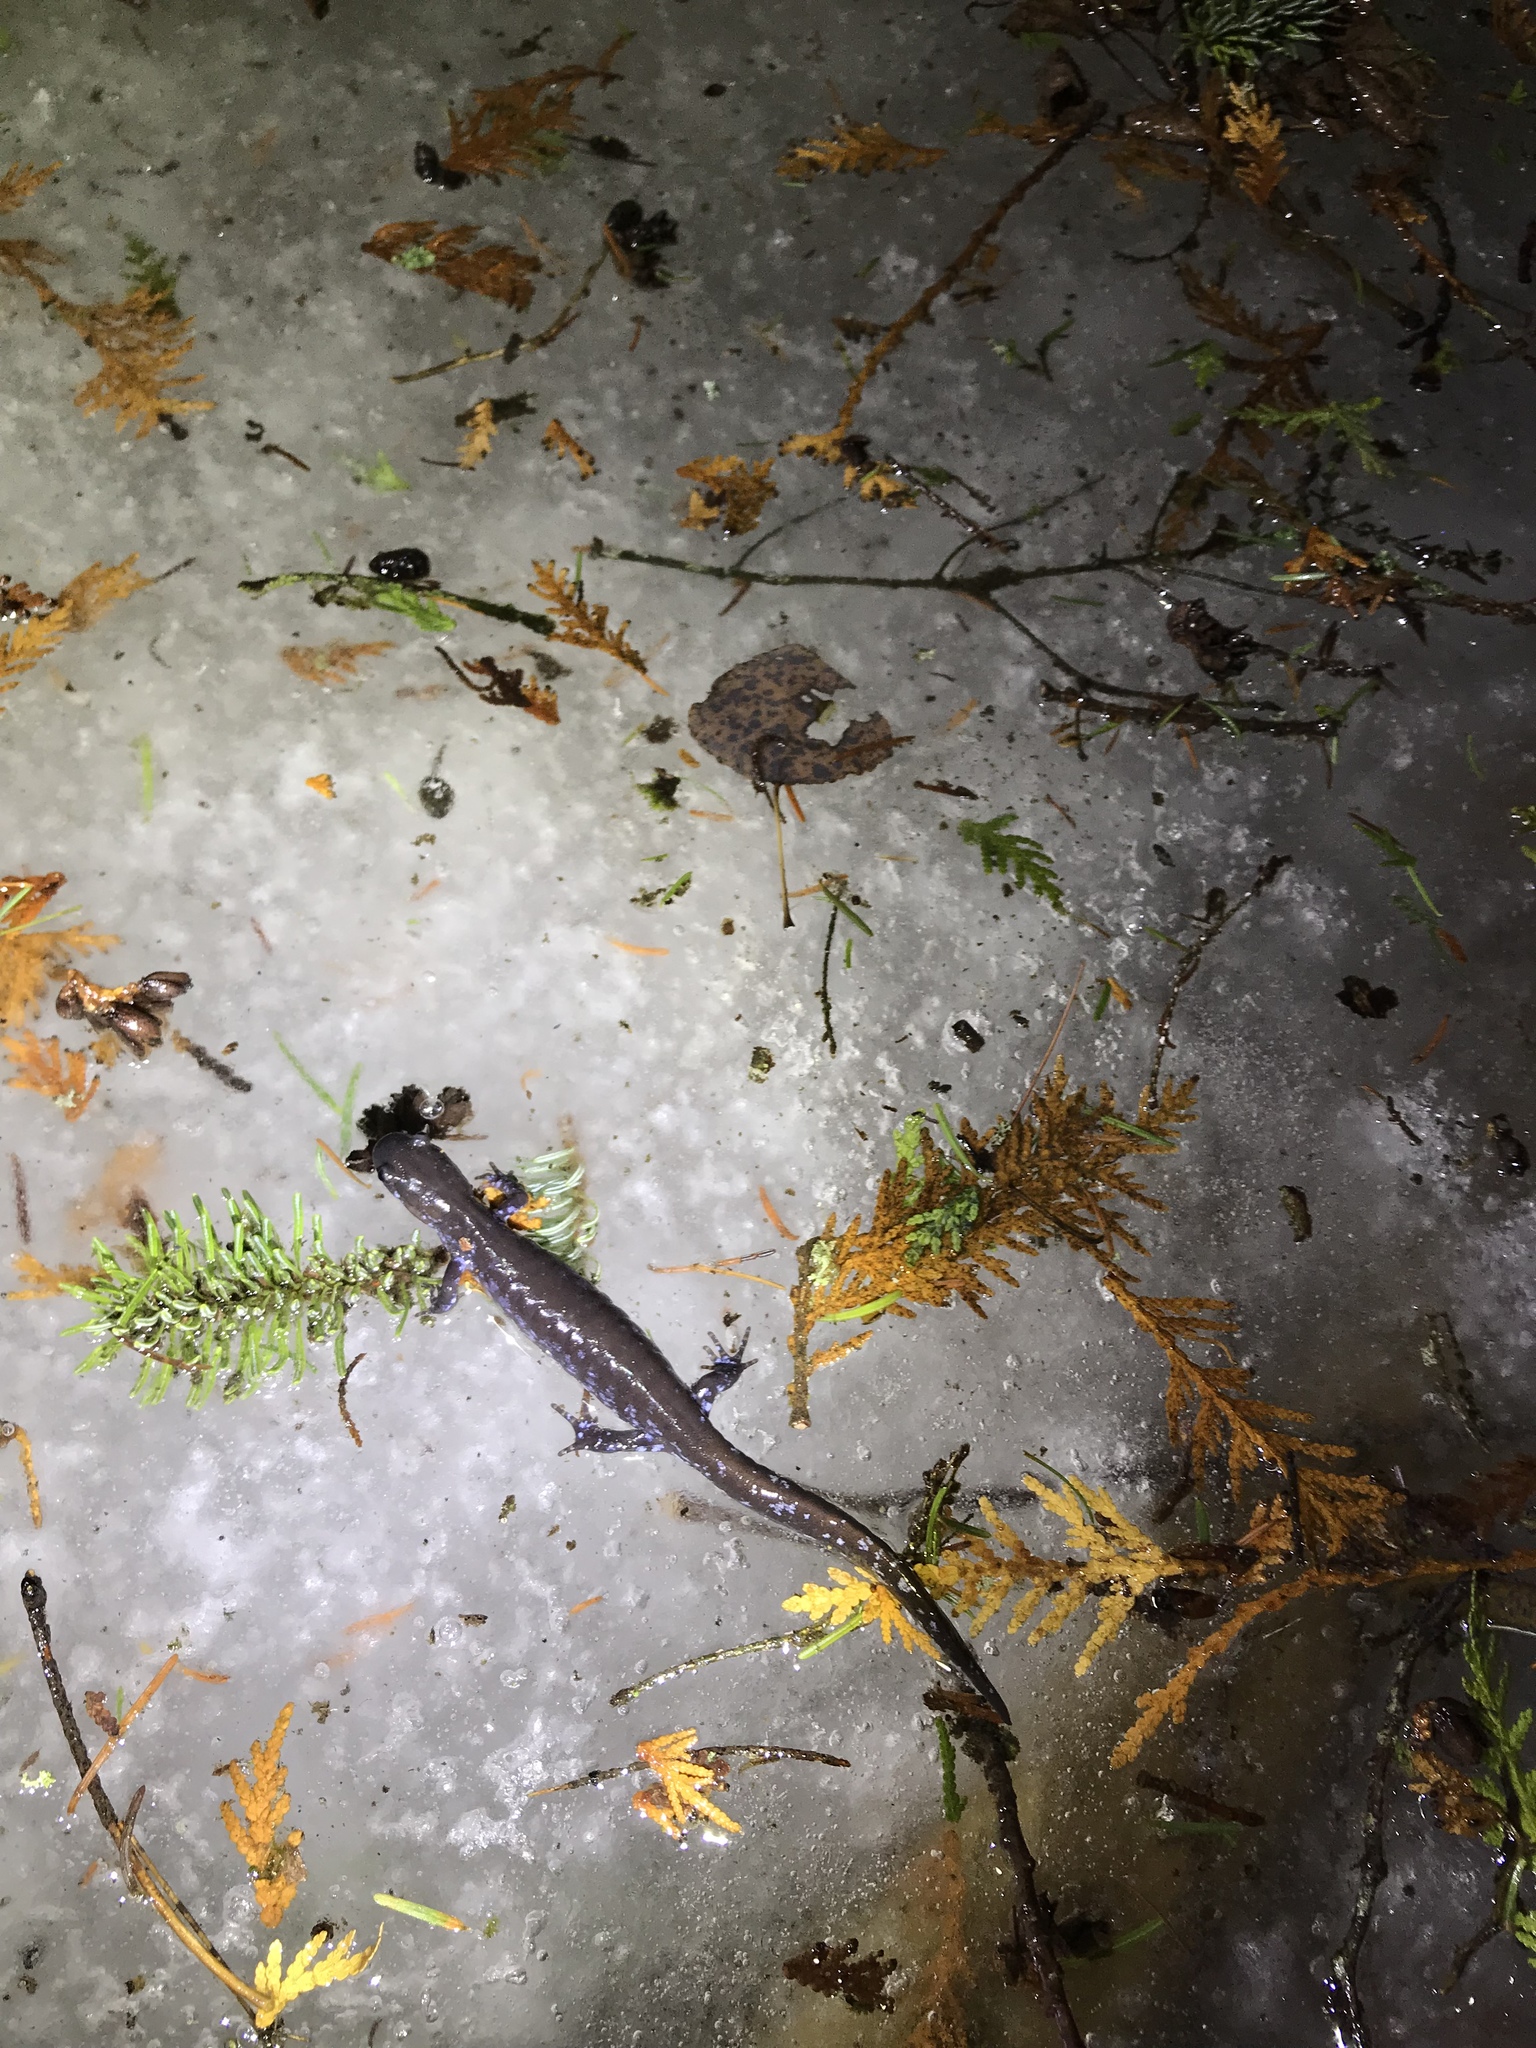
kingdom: Animalia
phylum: Chordata
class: Amphibia
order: Caudata
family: Ambystomatidae
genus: Ambystoma
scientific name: Ambystoma laterale
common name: Blue-spotted salamander
